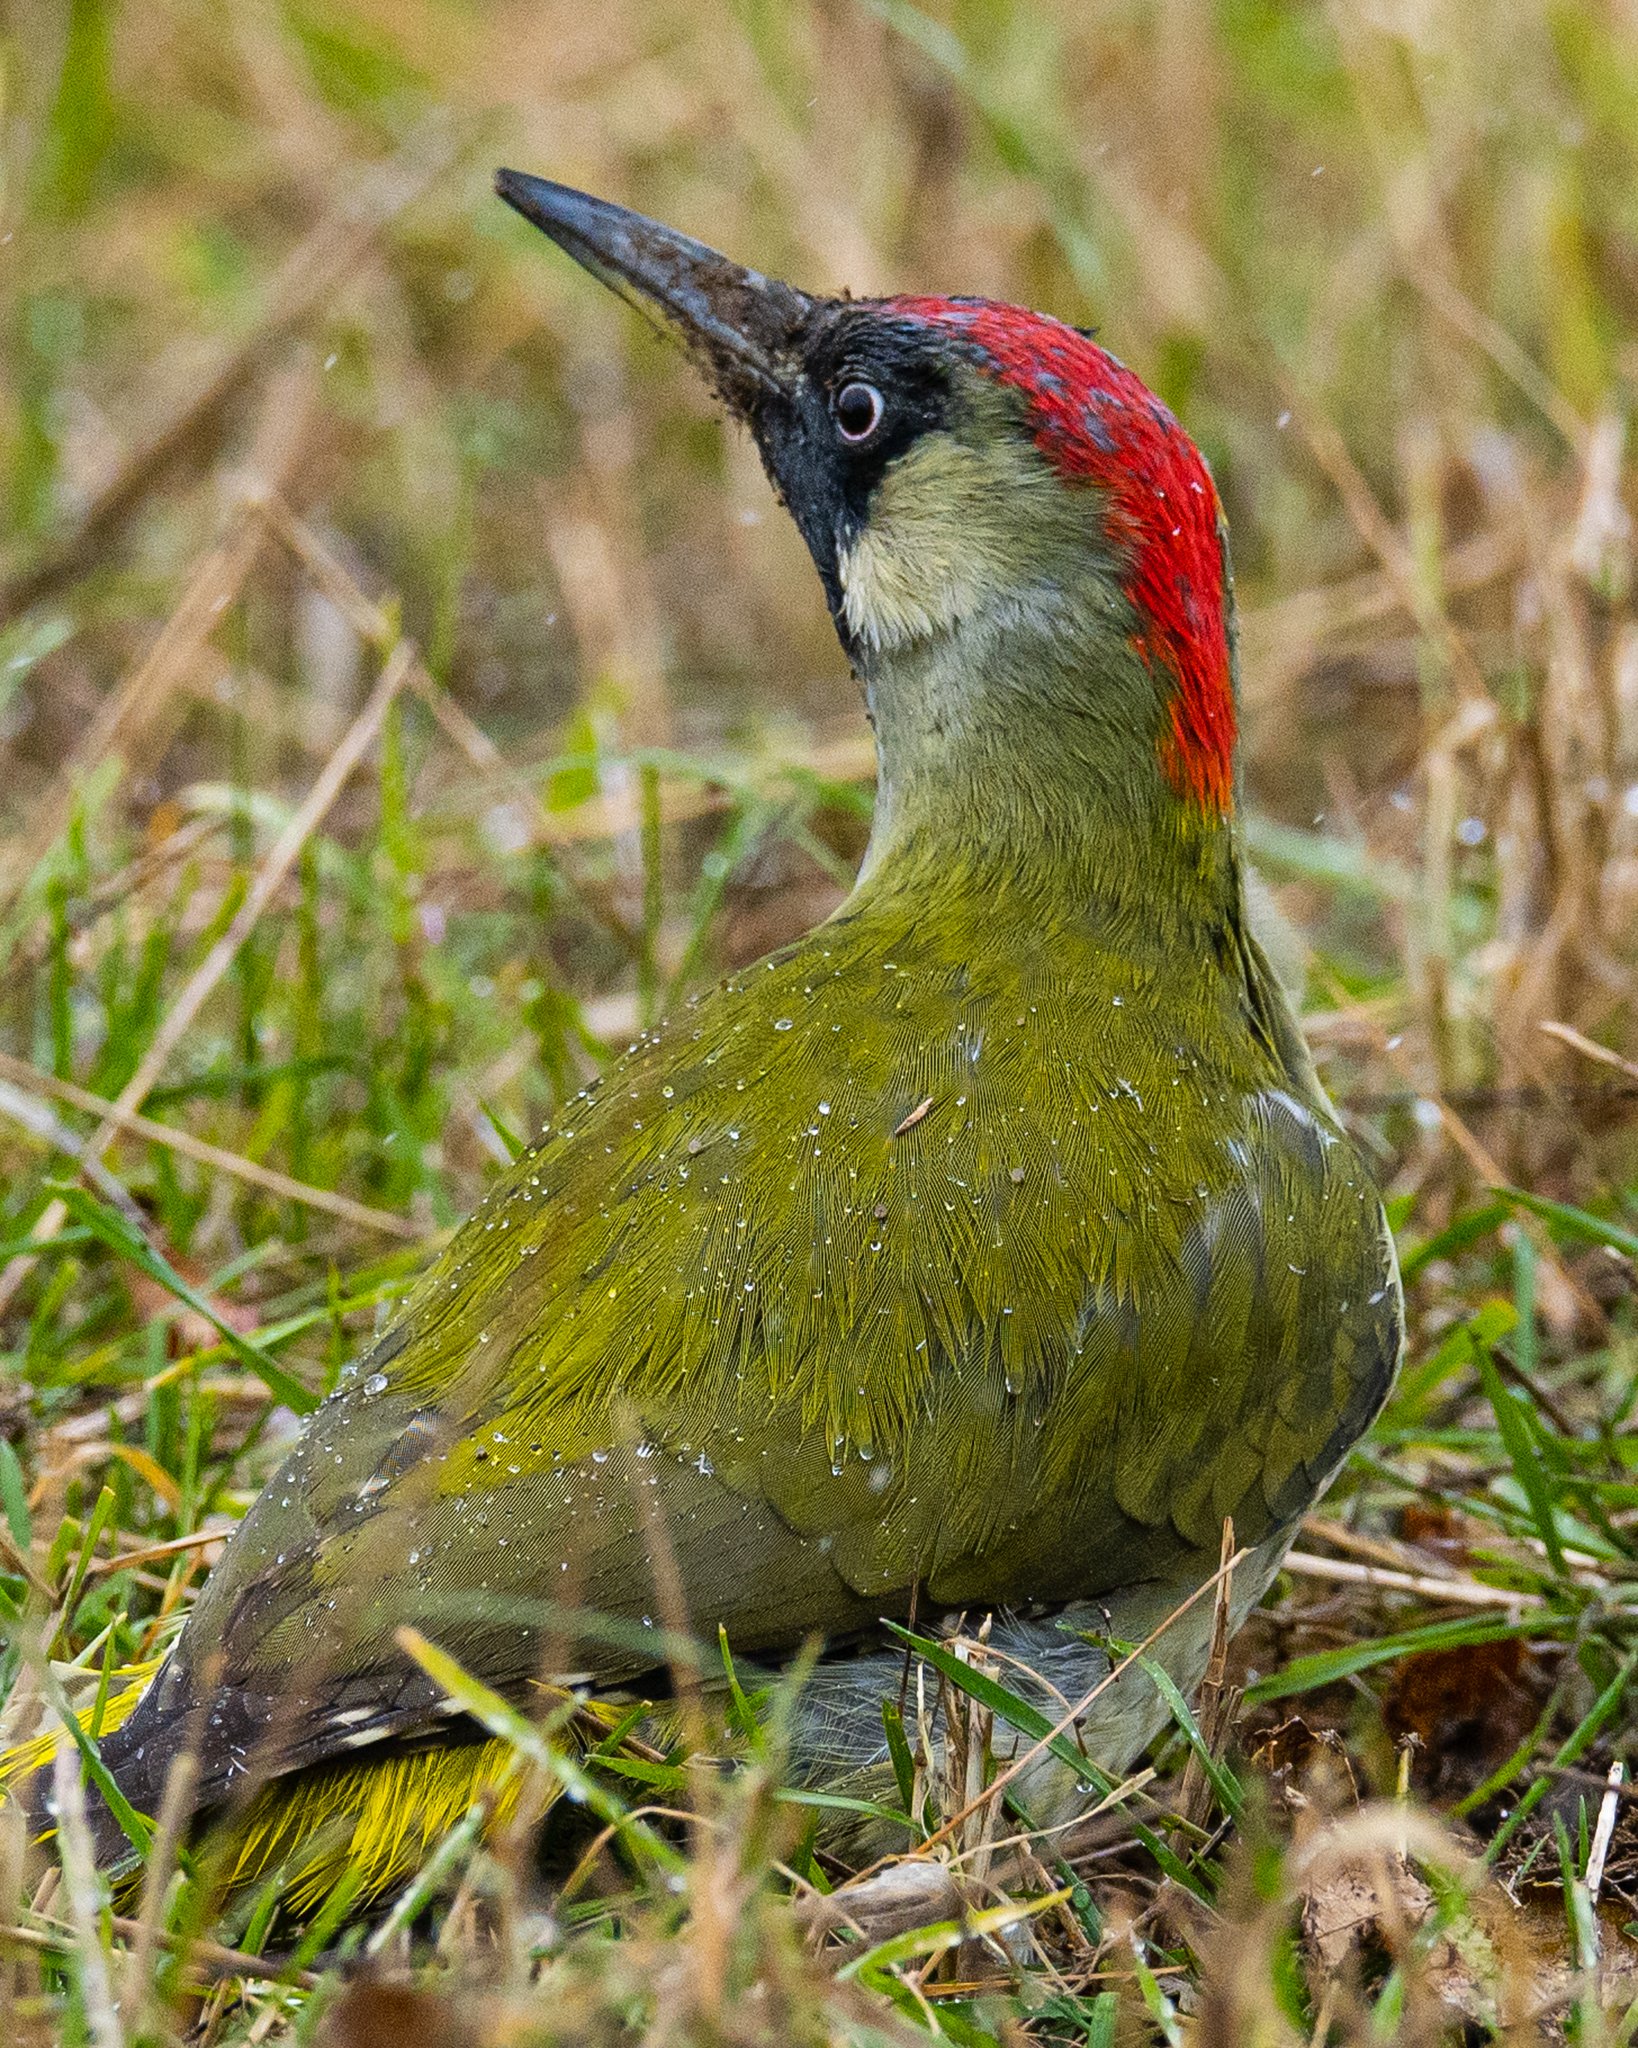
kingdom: Animalia
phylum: Chordata
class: Aves
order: Piciformes
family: Picidae
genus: Picus
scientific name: Picus viridis
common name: European green woodpecker
